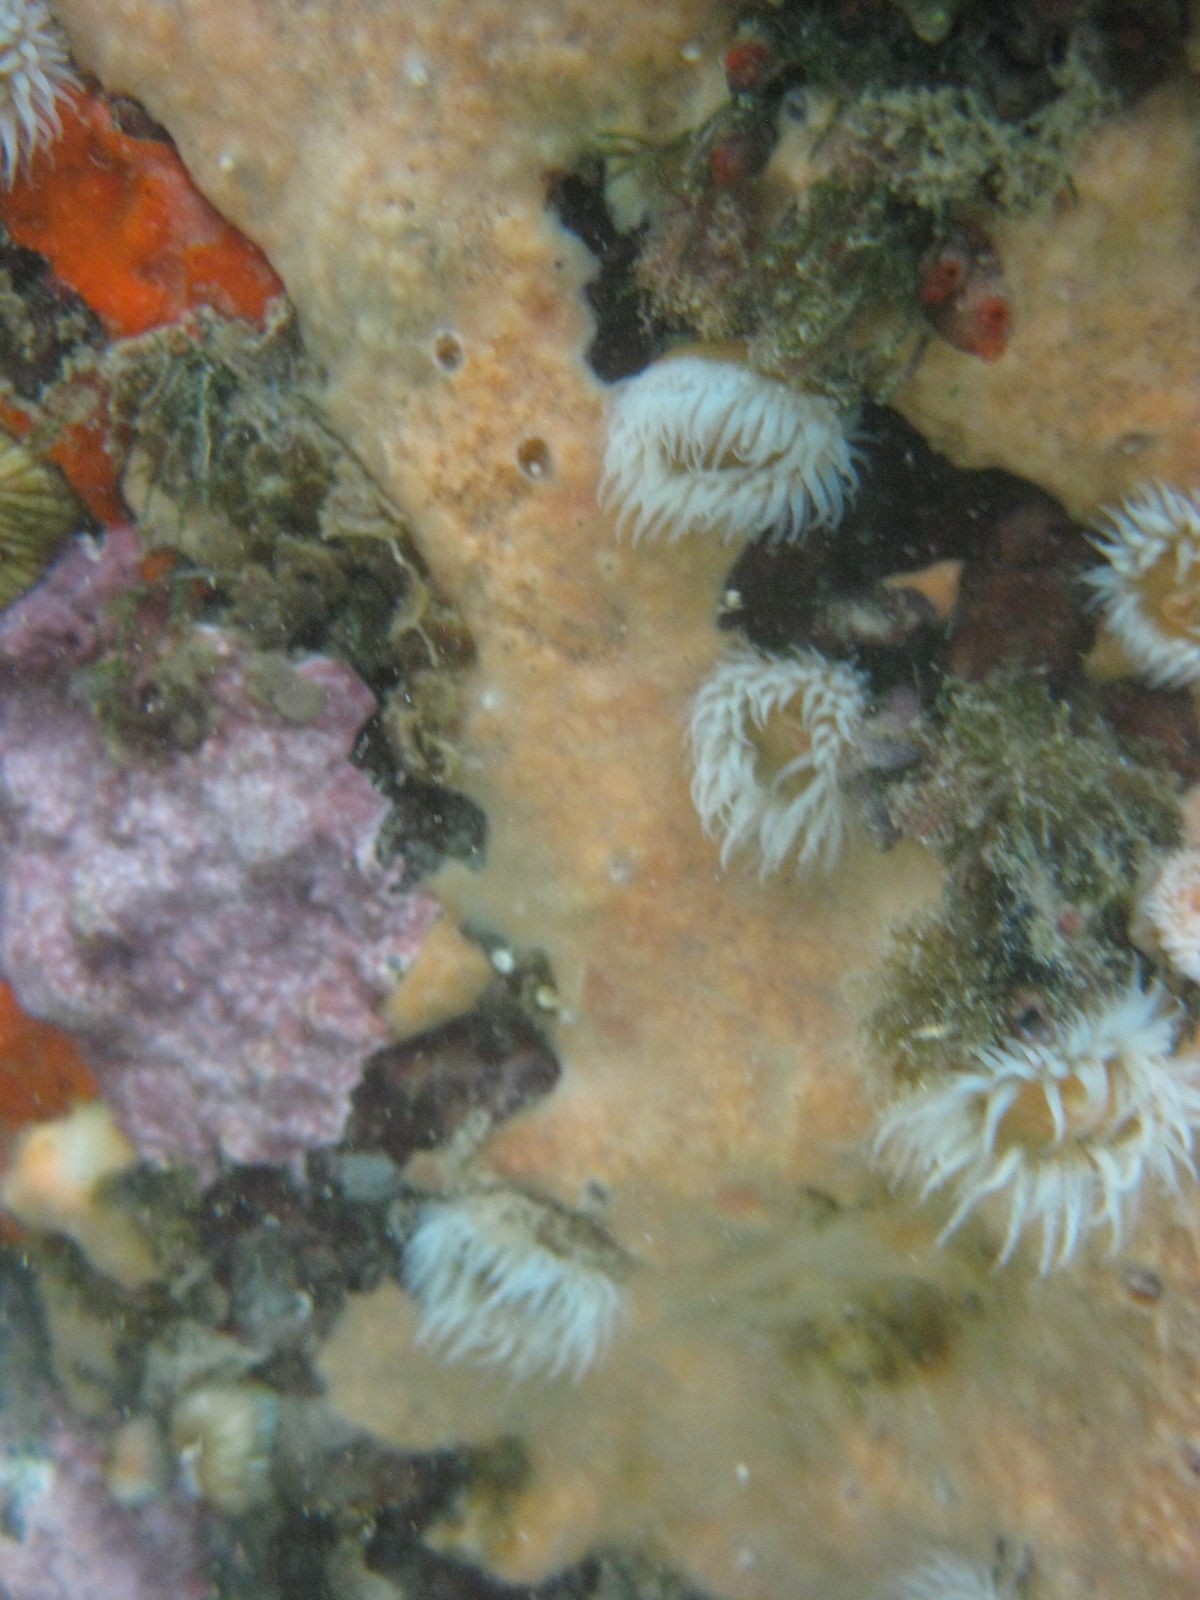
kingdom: Animalia
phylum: Cnidaria
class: Anthozoa
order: Actiniaria
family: Sagartiidae
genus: Anthothoe
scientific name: Anthothoe albocincta
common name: Orange striped anemone
